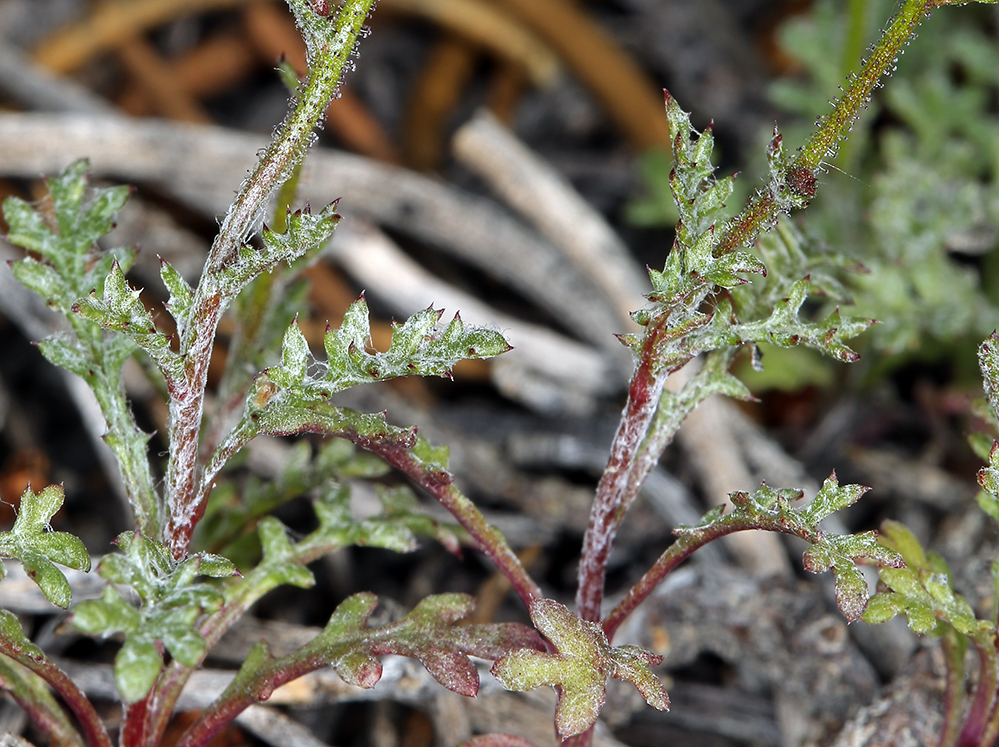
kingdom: Plantae
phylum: Tracheophyta
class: Magnoliopsida
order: Ericales
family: Polemoniaceae
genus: Gilia
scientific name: Gilia transmontana
